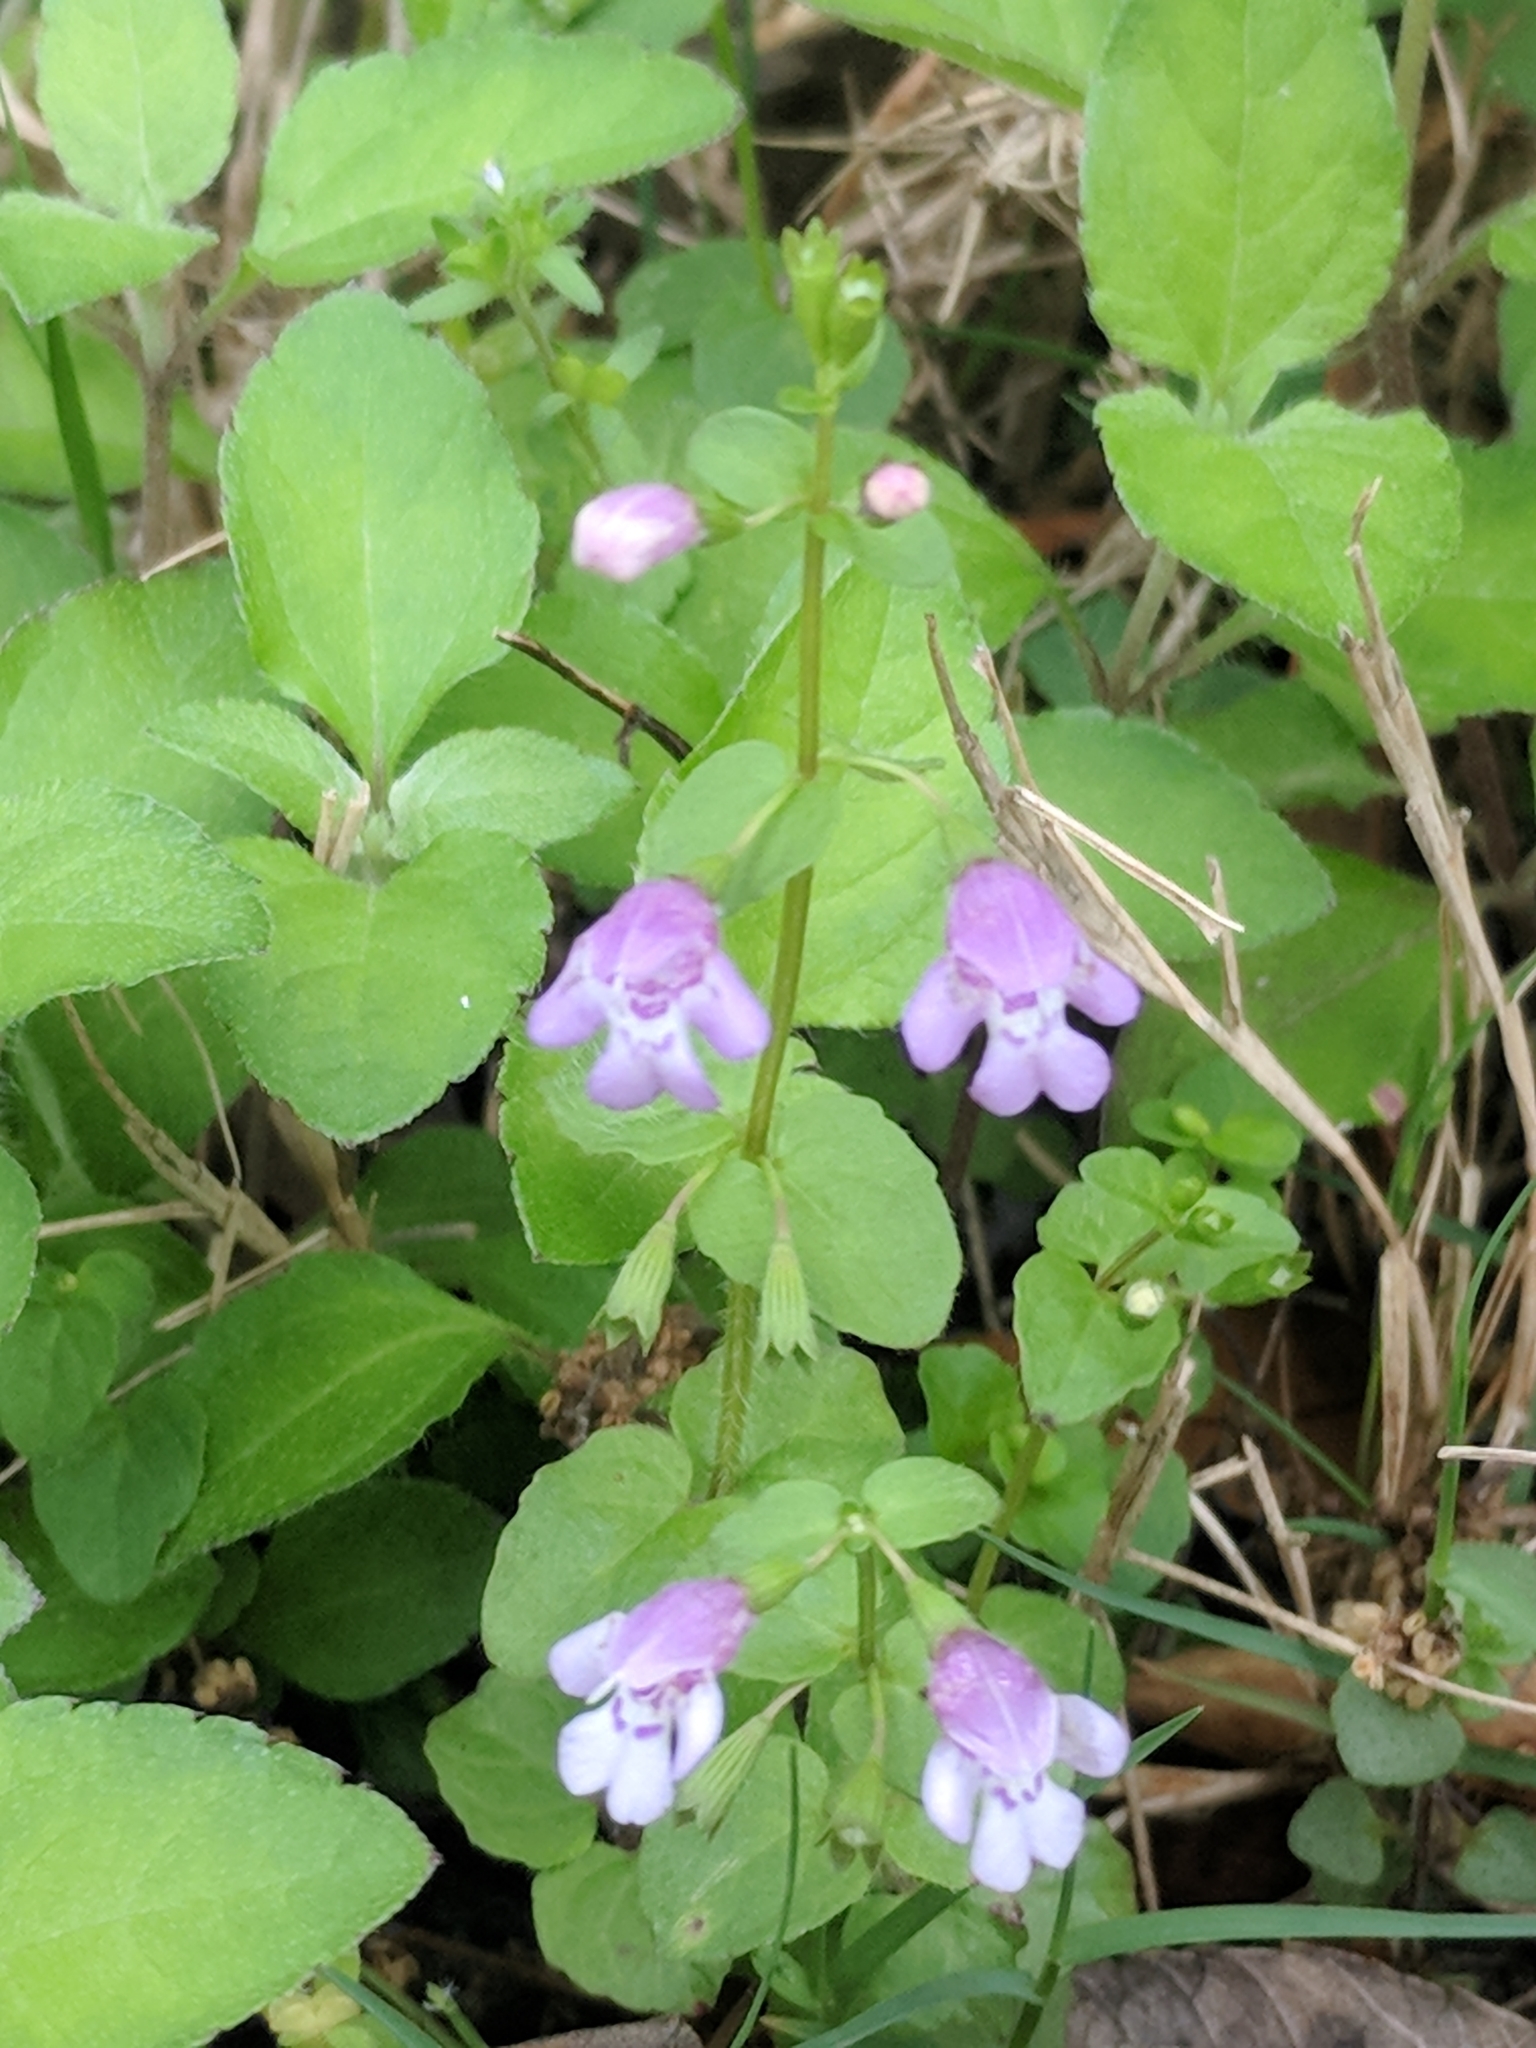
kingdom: Plantae
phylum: Tracheophyta
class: Magnoliopsida
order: Lamiales
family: Lamiaceae
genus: Clinopodium
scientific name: Clinopodium brownei
